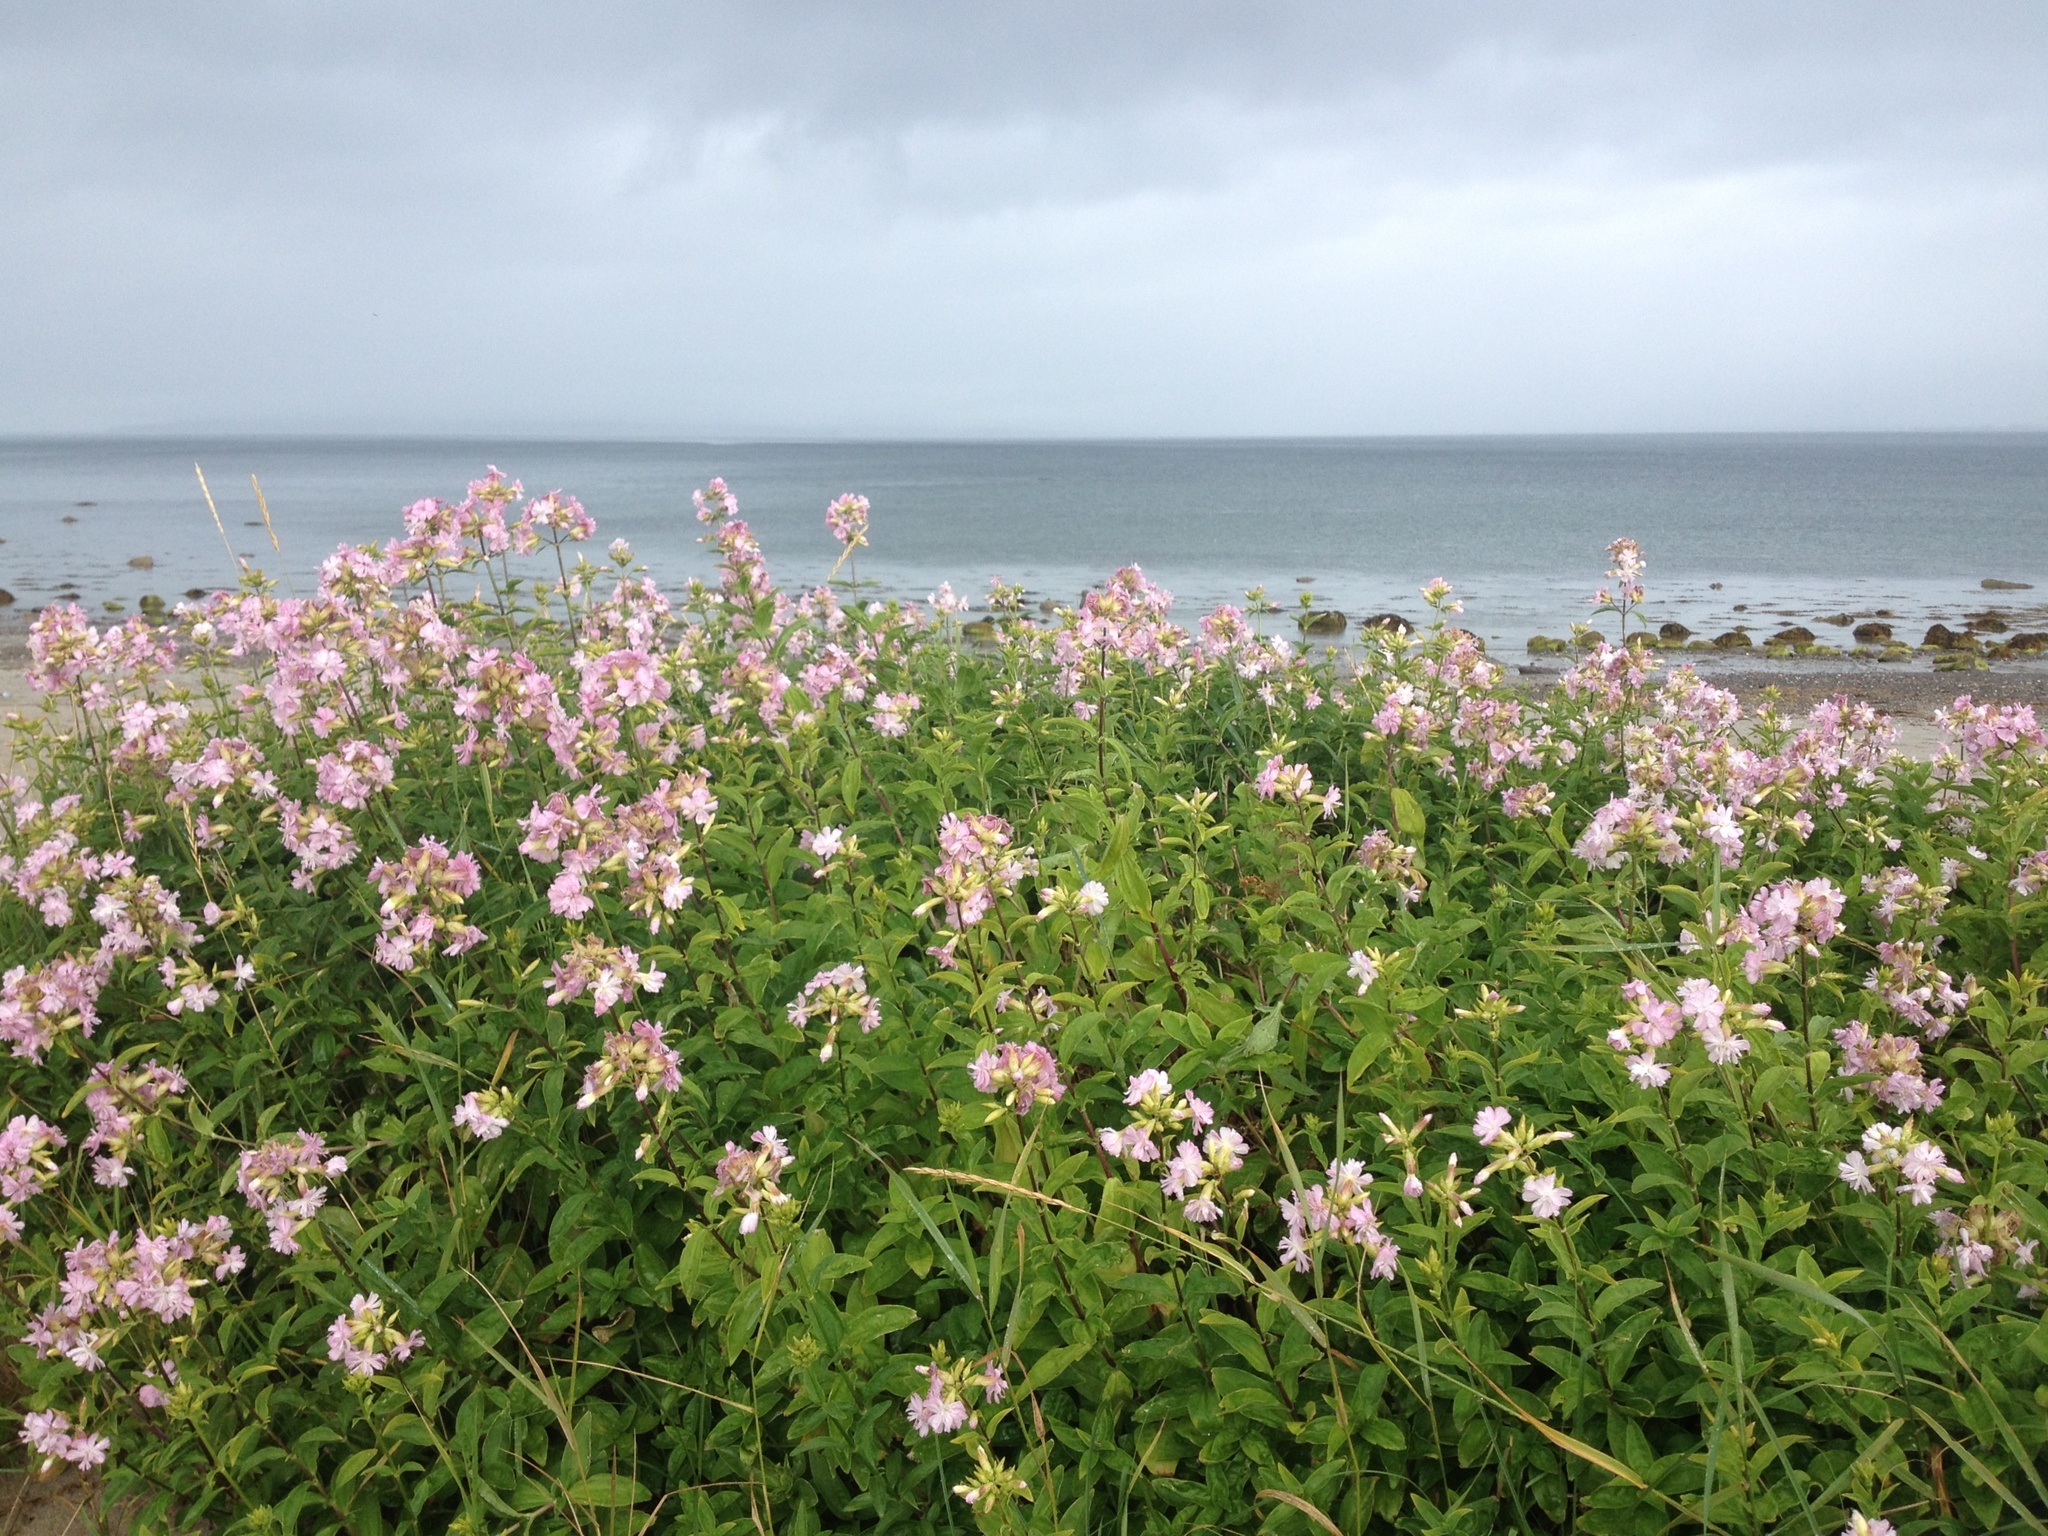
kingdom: Plantae
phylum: Tracheophyta
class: Magnoliopsida
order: Caryophyllales
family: Caryophyllaceae
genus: Saponaria
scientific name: Saponaria officinalis
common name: Soapwort
